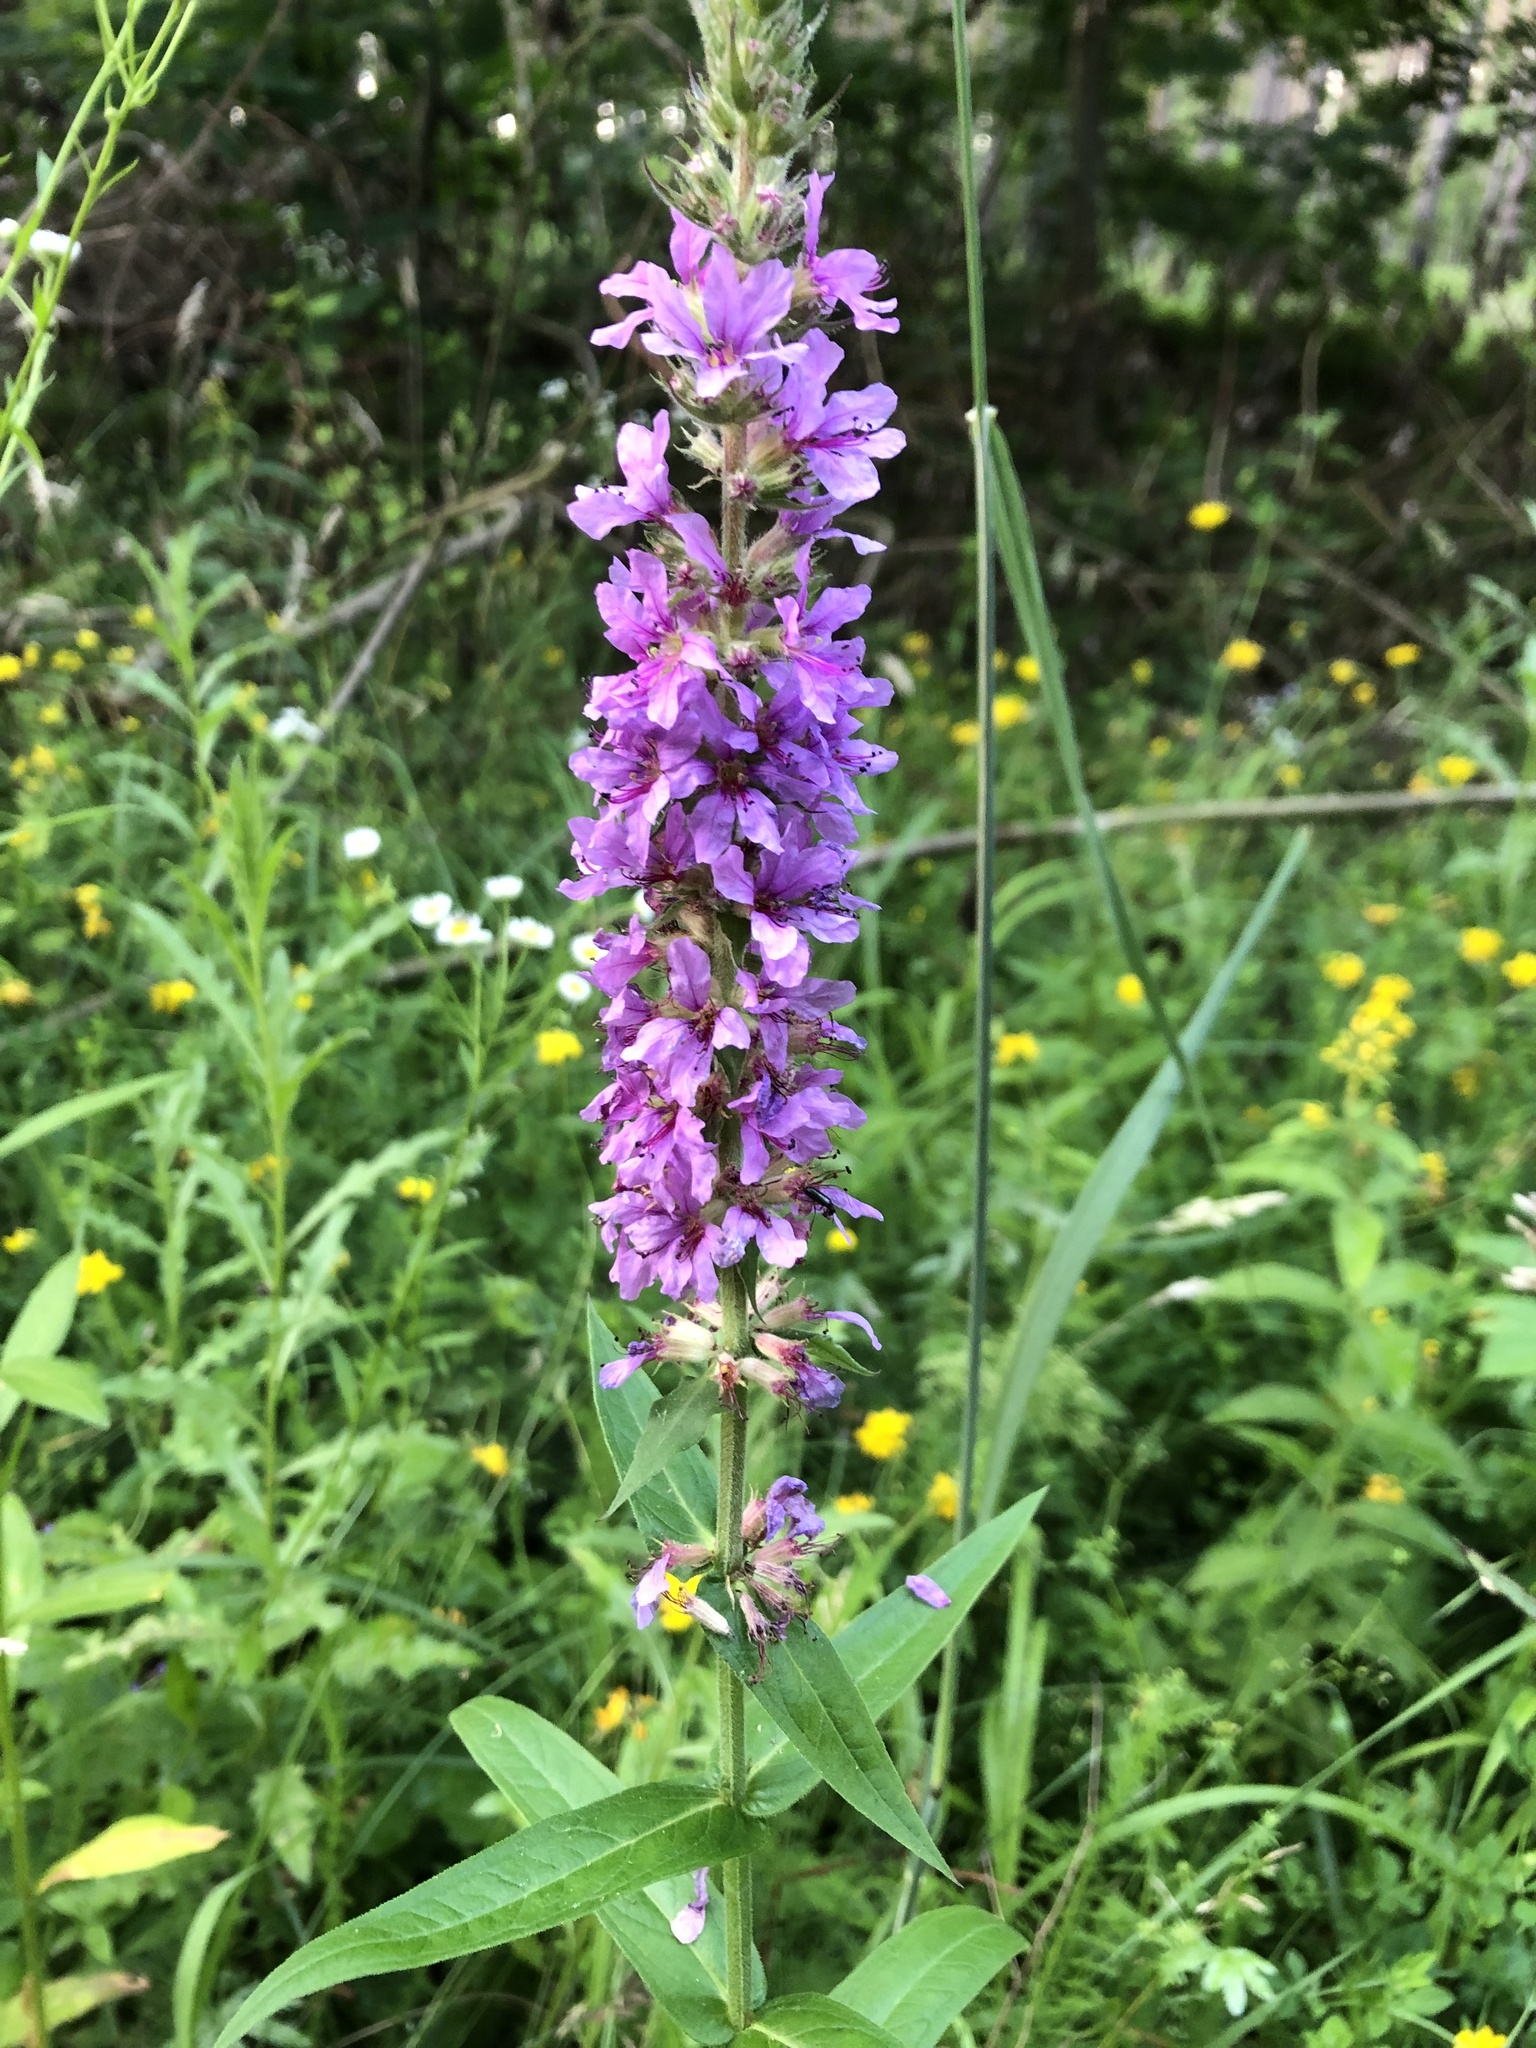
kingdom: Plantae
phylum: Tracheophyta
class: Magnoliopsida
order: Myrtales
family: Lythraceae
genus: Lythrum
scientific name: Lythrum salicaria
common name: Purple loosestrife
